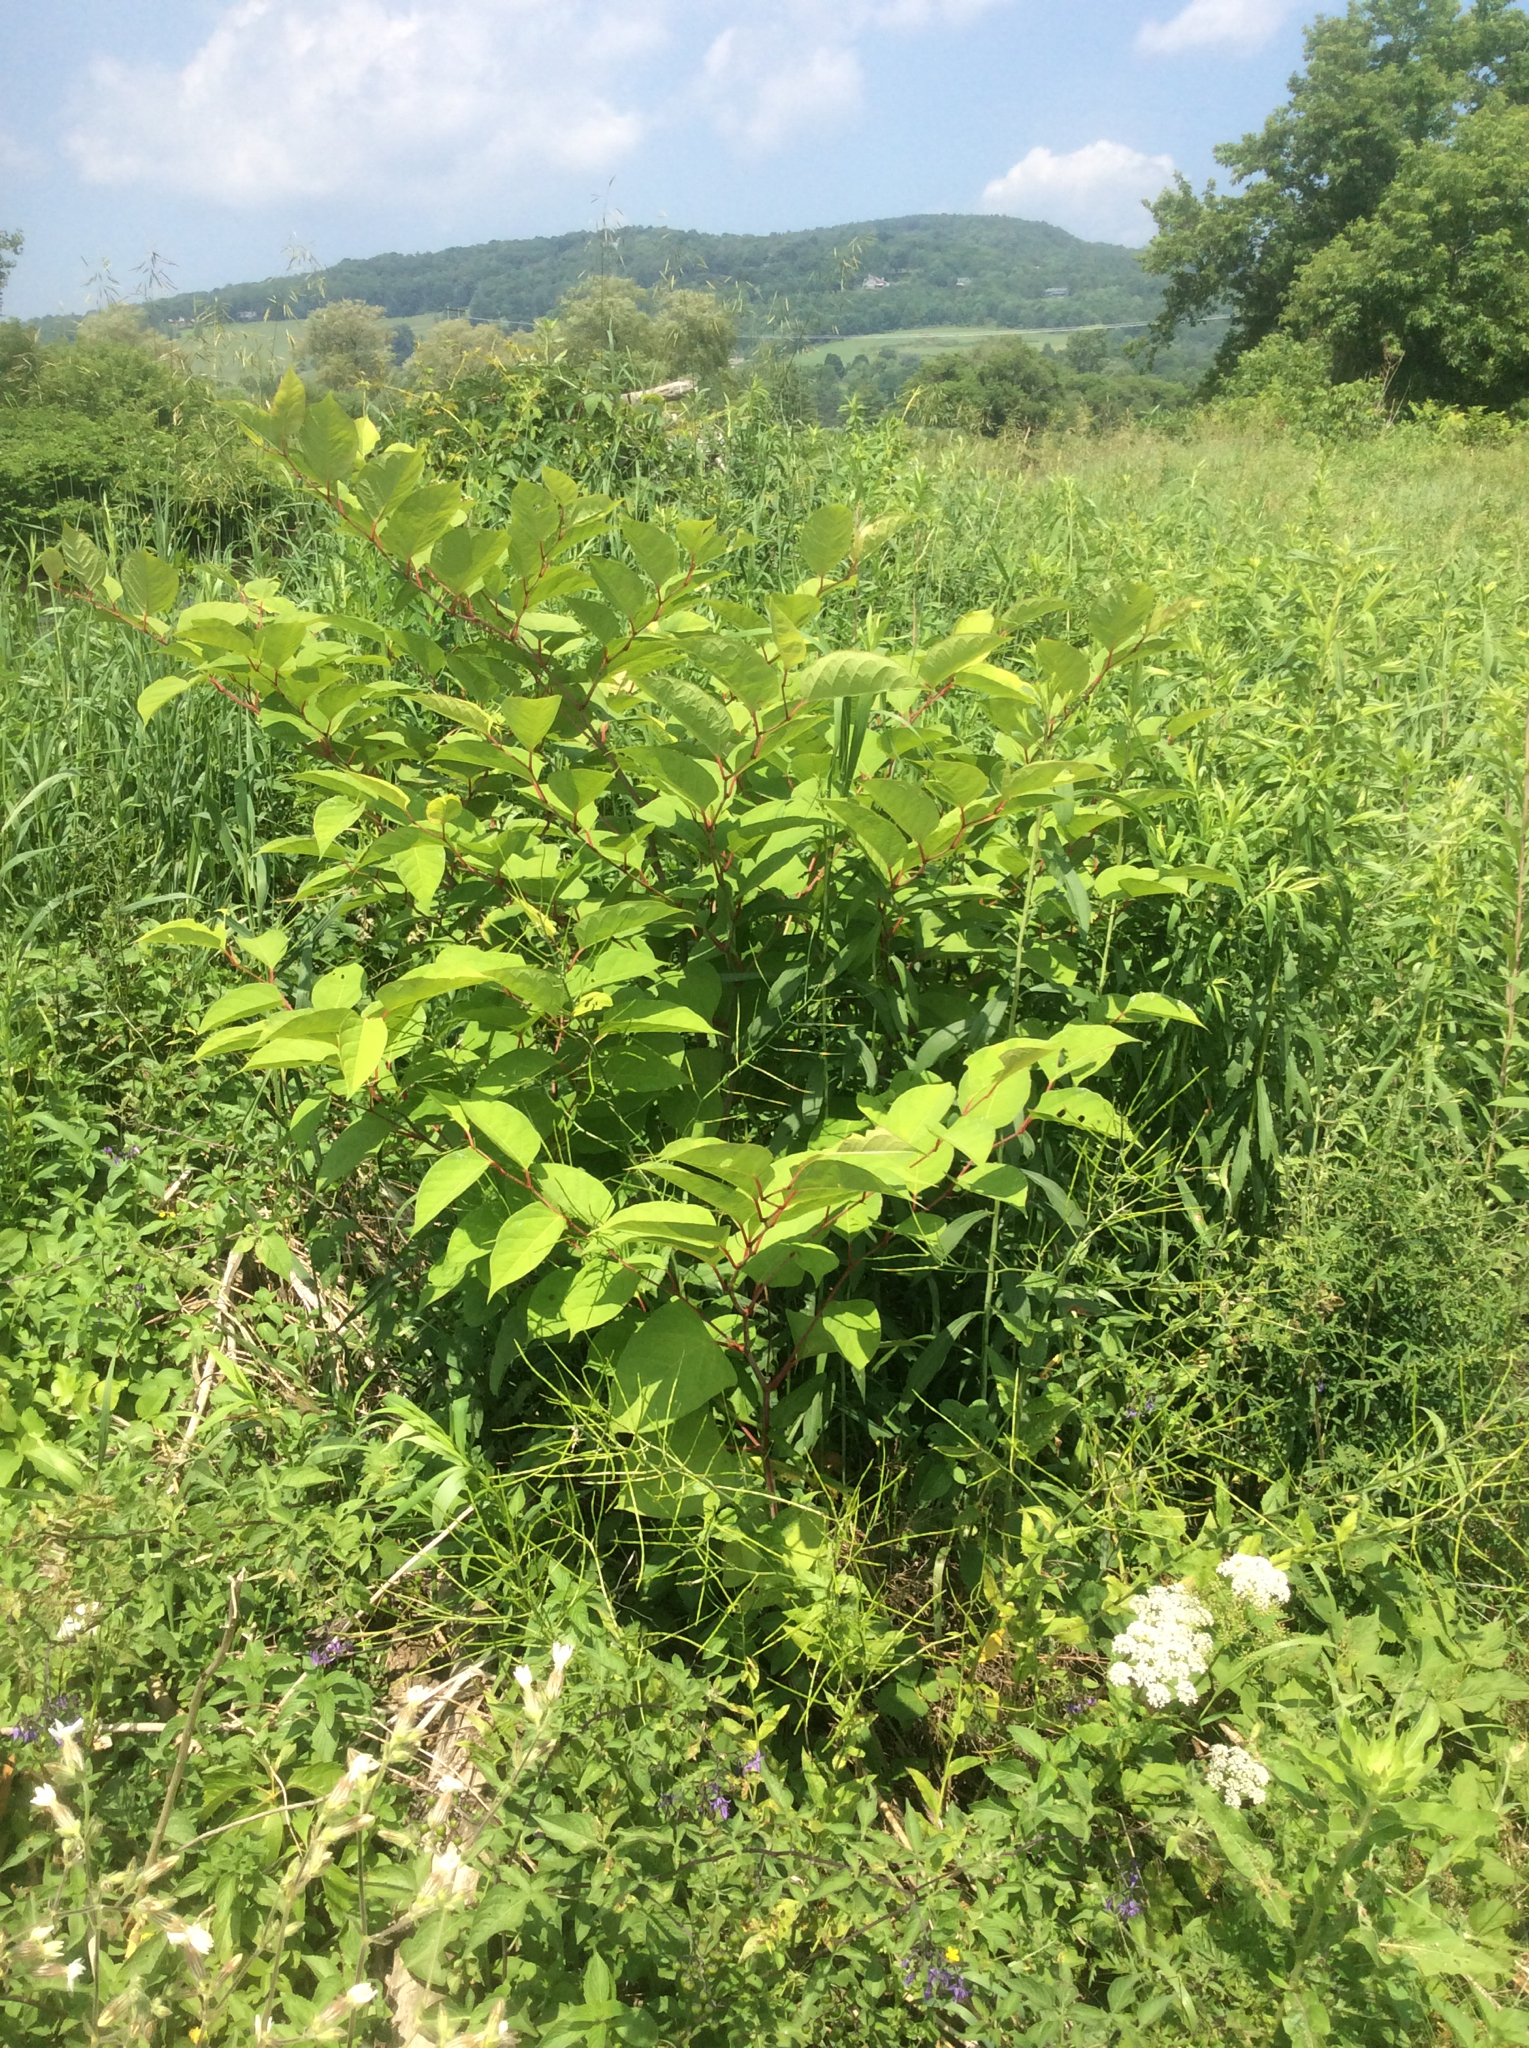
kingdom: Plantae
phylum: Tracheophyta
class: Magnoliopsida
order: Caryophyllales
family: Polygonaceae
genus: Reynoutria
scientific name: Reynoutria japonica
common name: Japanese knotweed
